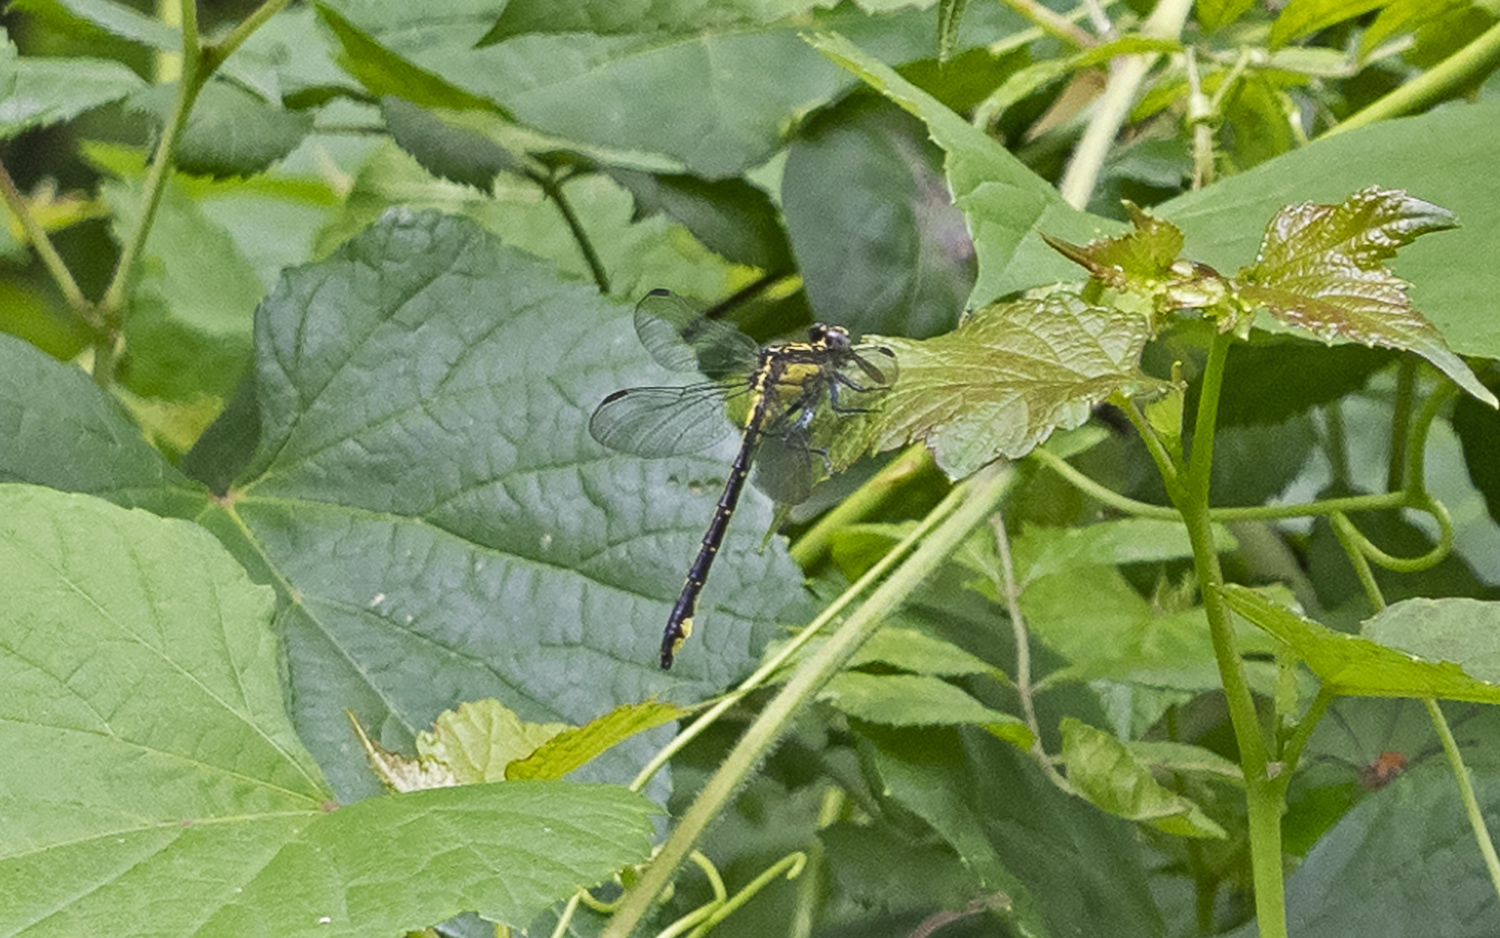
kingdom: Animalia
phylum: Arthropoda
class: Insecta
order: Odonata
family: Gomphidae
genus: Stenogomphurus
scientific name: Stenogomphurus rogersi
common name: Sable clubtail
